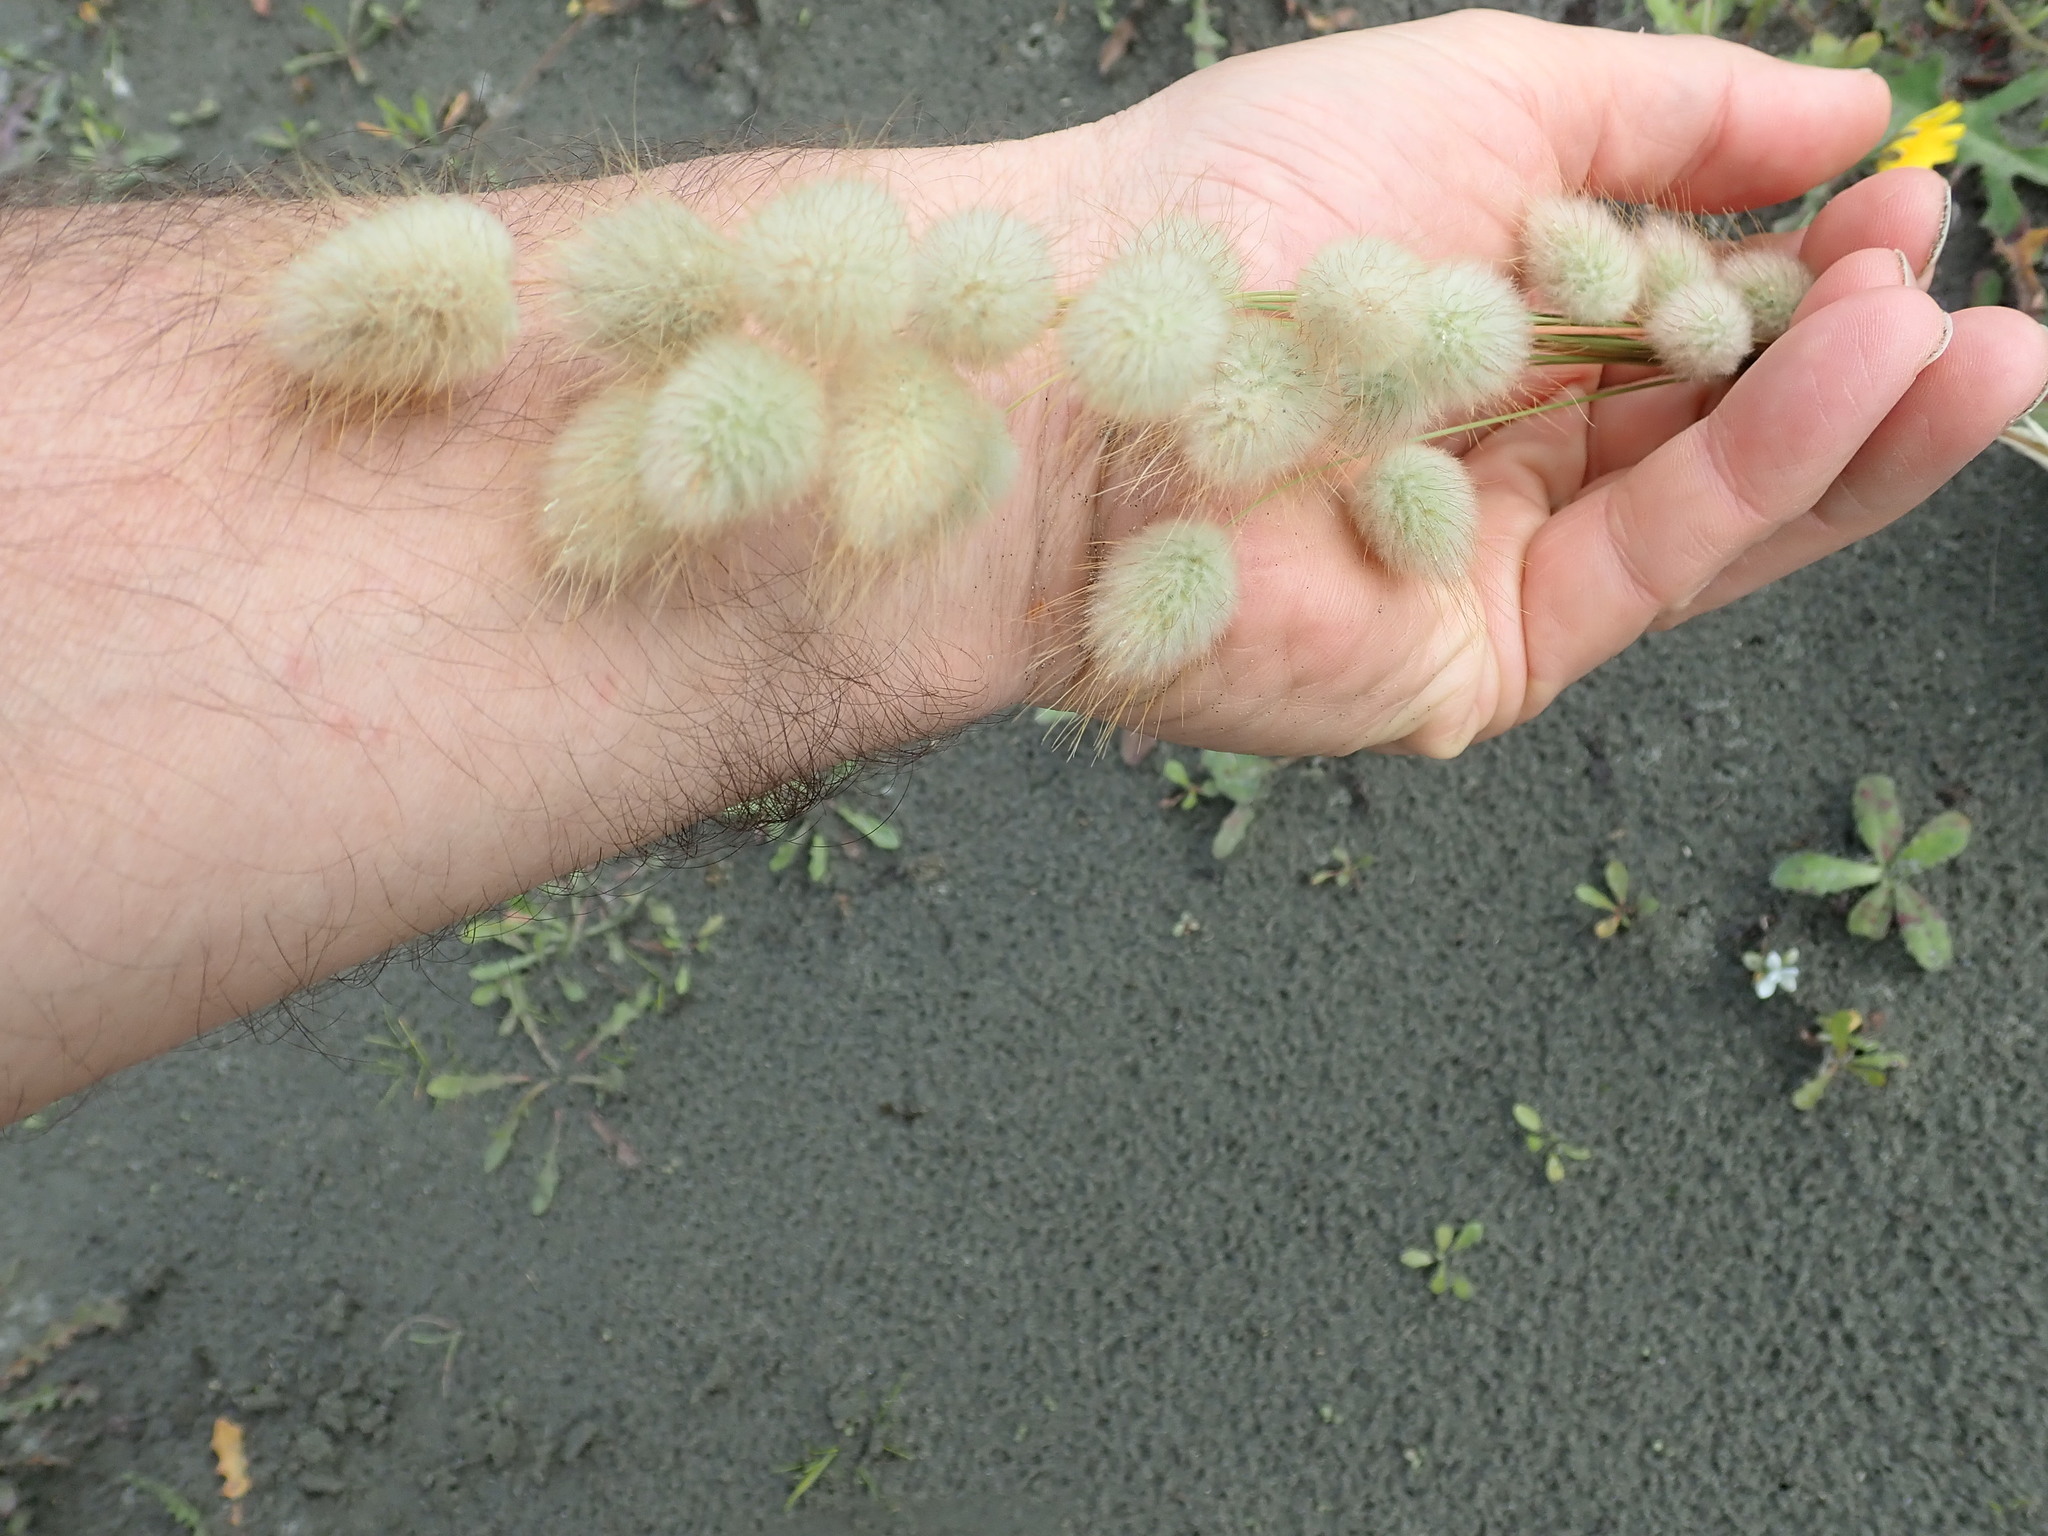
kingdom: Plantae
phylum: Tracheophyta
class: Liliopsida
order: Poales
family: Poaceae
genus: Lagurus
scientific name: Lagurus ovatus
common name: Hare's-tail
